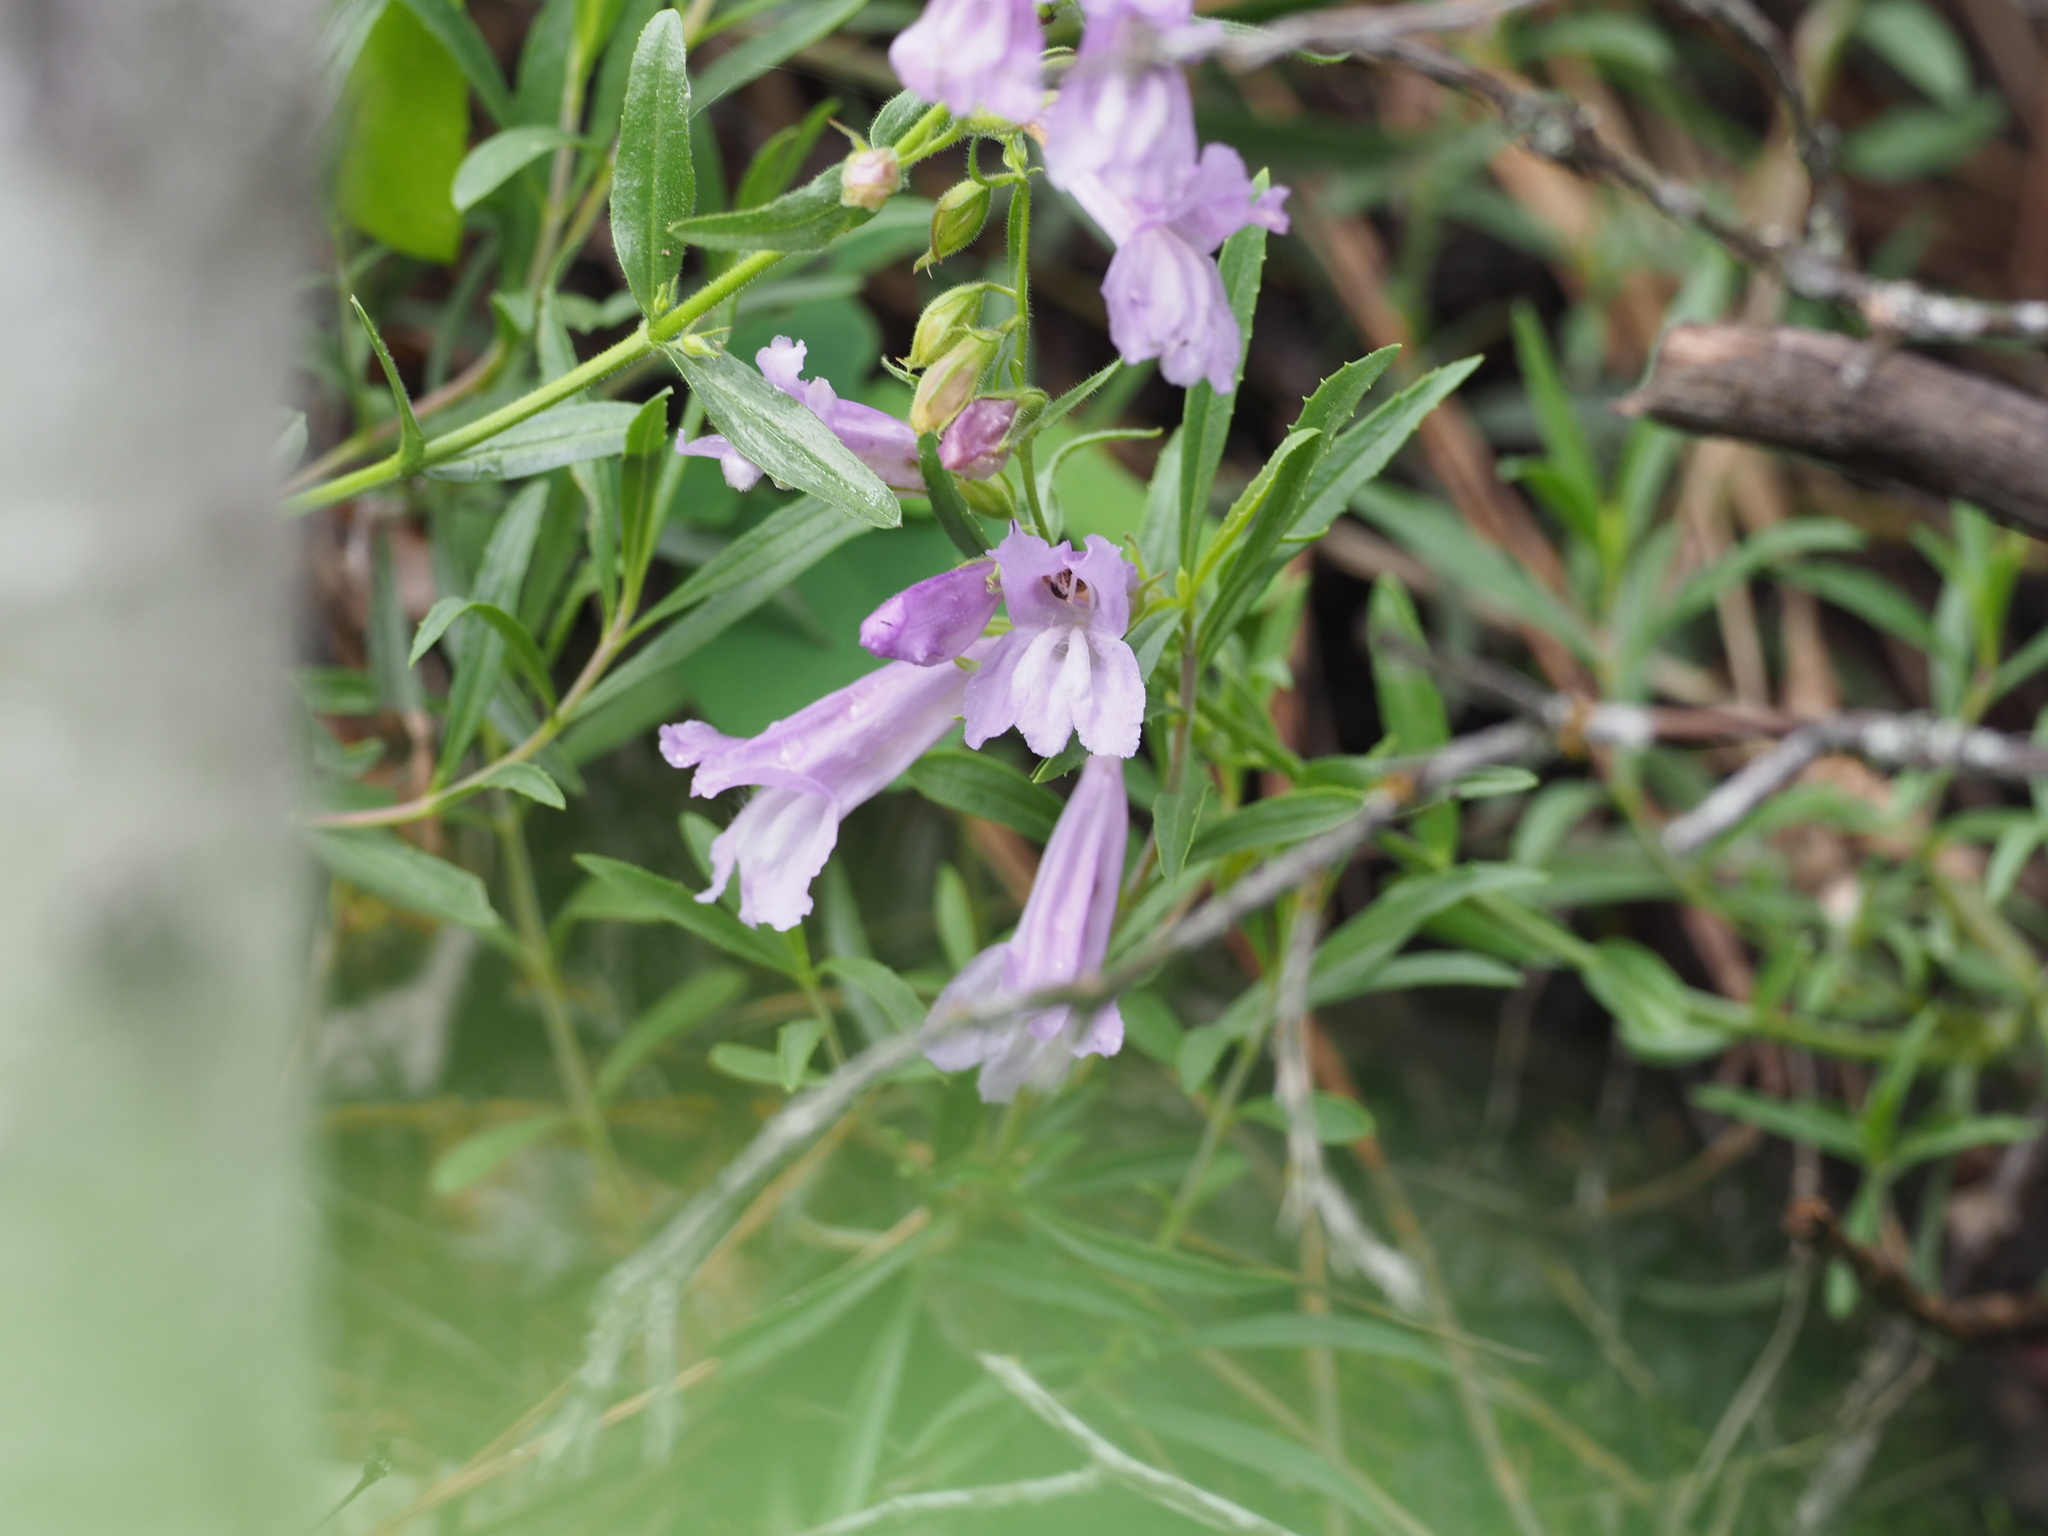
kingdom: Plantae
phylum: Tracheophyta
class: Magnoliopsida
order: Lamiales
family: Plantaginaceae
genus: Penstemon
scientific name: Penstemon fruticosus
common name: Bush penstemon
